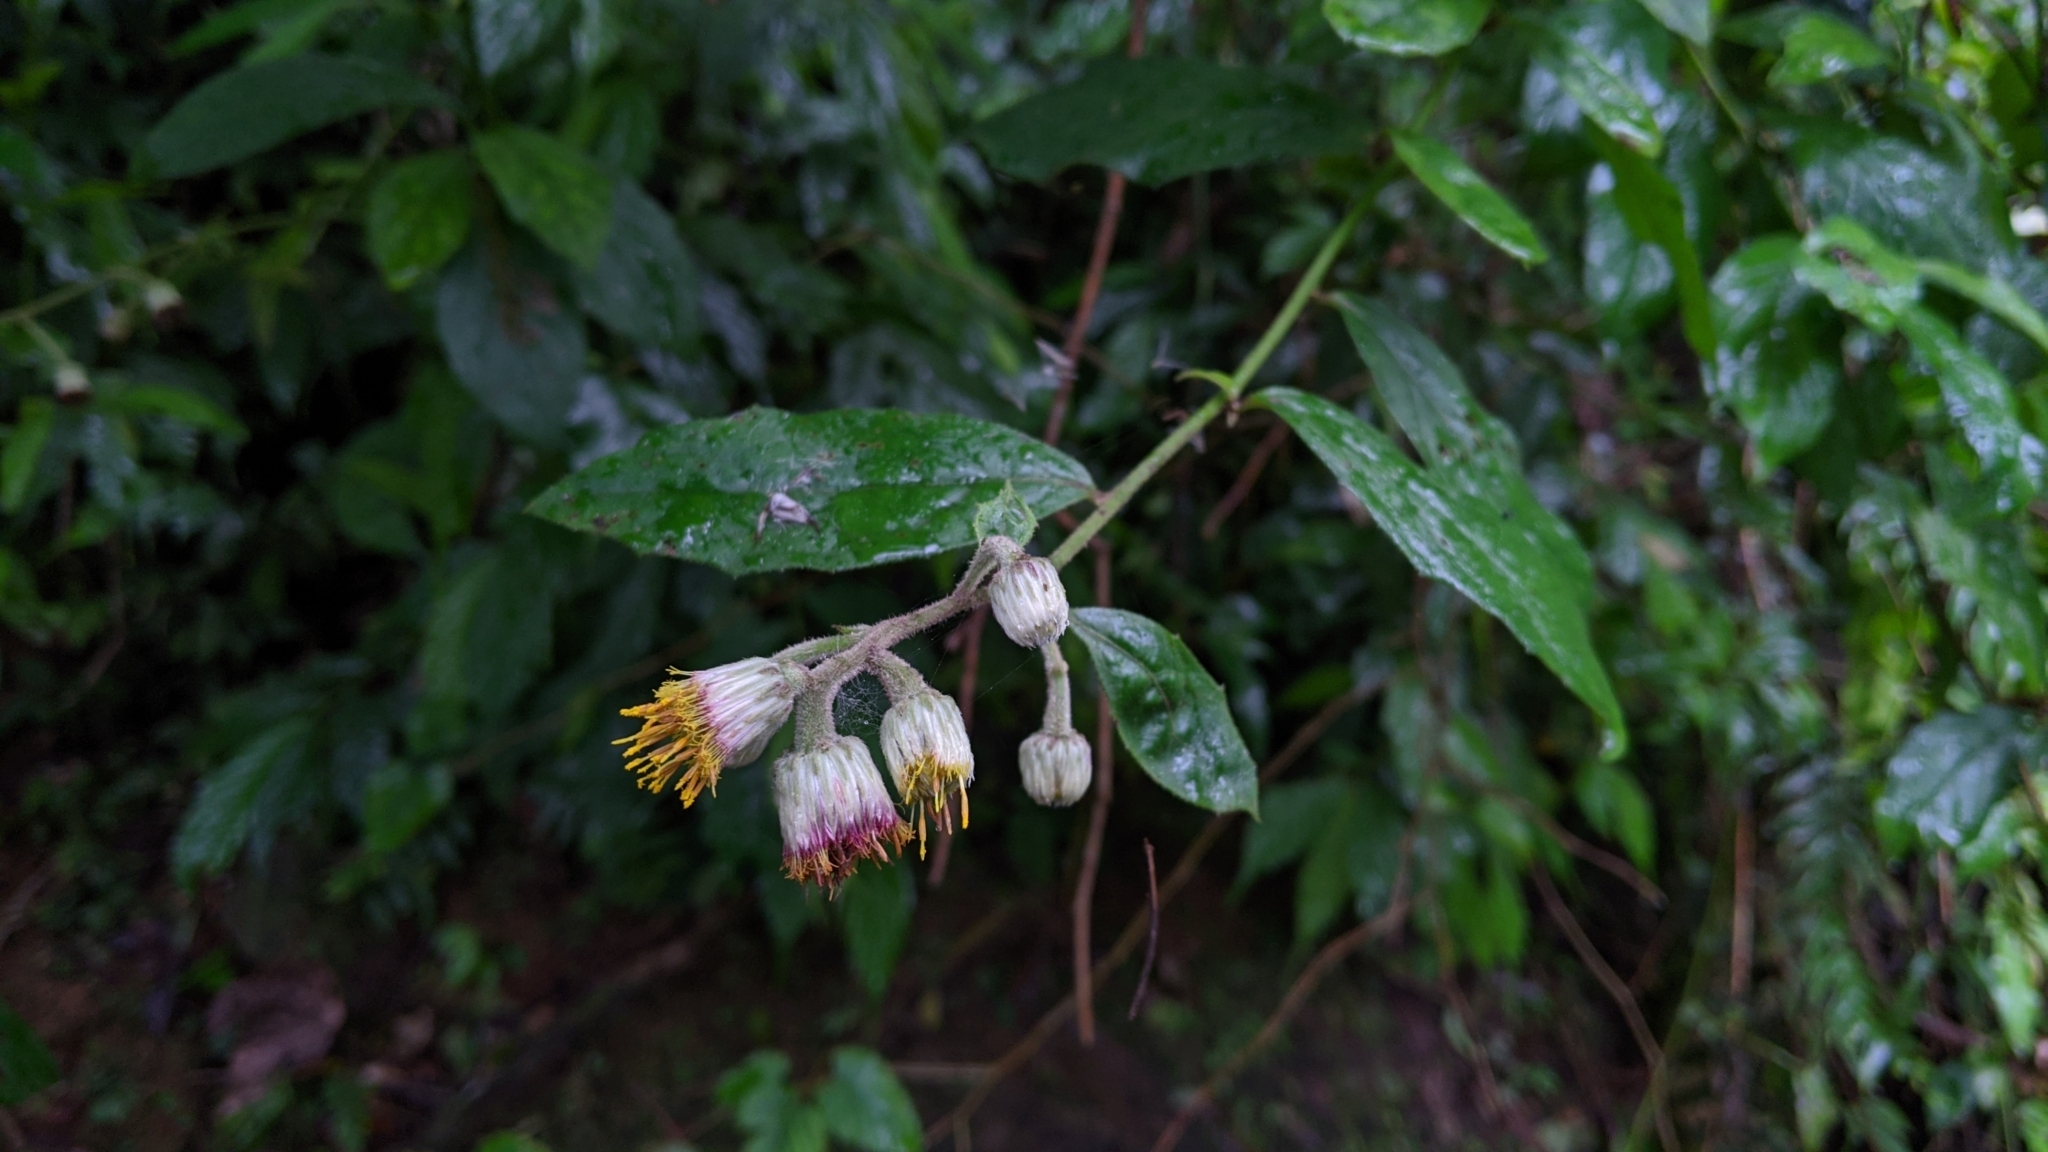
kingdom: Plantae
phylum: Tracheophyta
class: Magnoliopsida
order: Asterales
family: Asteraceae
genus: Blumea
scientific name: Blumea megacephala
